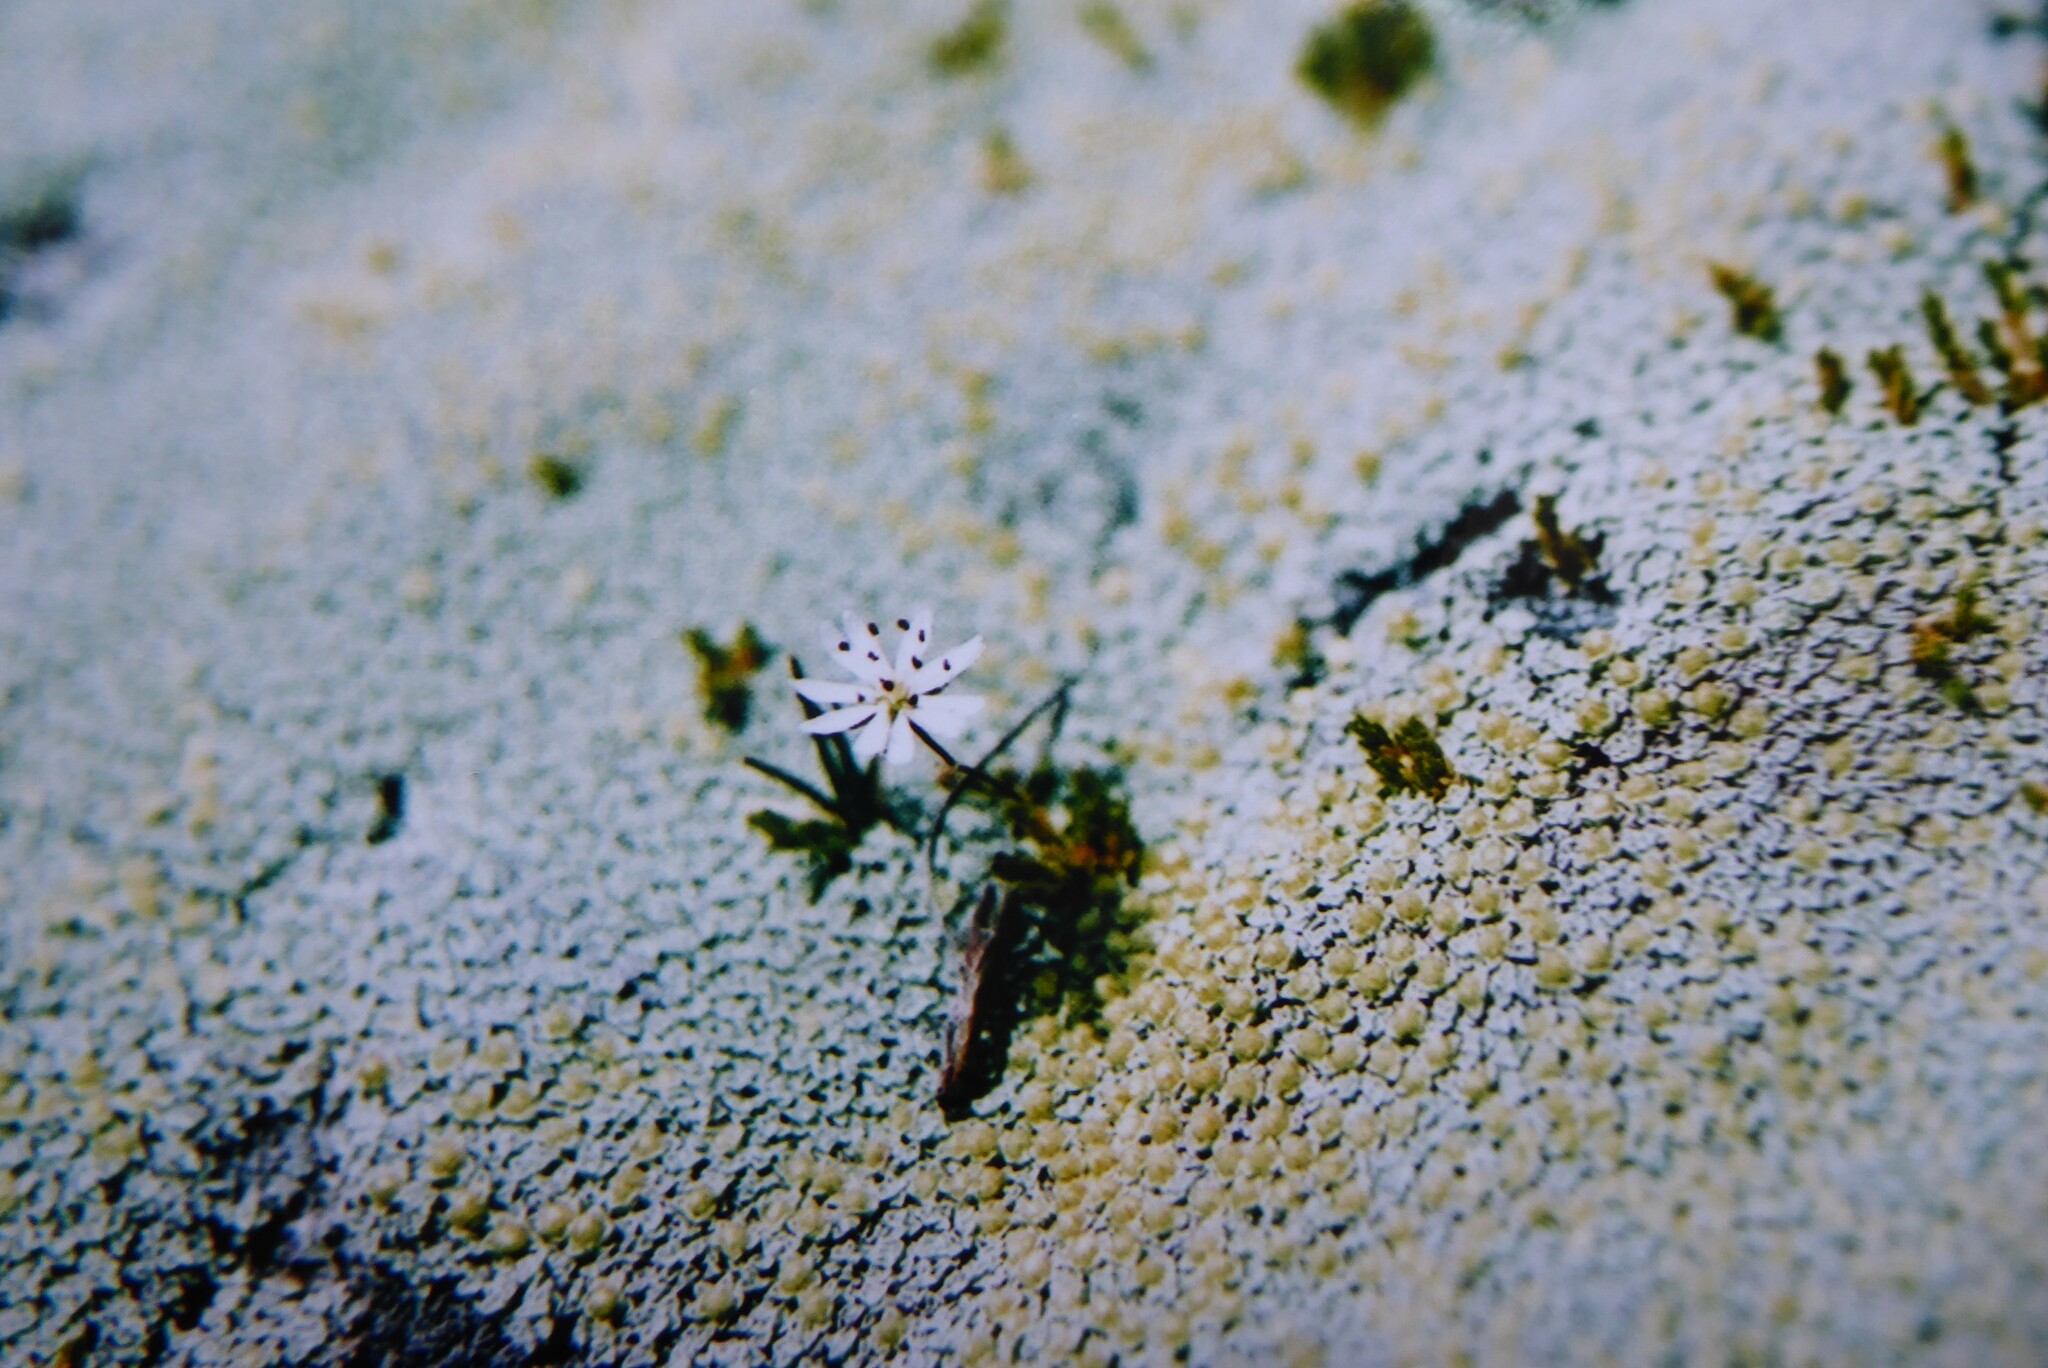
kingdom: Plantae
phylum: Tracheophyta
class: Magnoliopsida
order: Caryophyllales
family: Caryophyllaceae
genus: Stellaria
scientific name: Stellaria gracilenta
